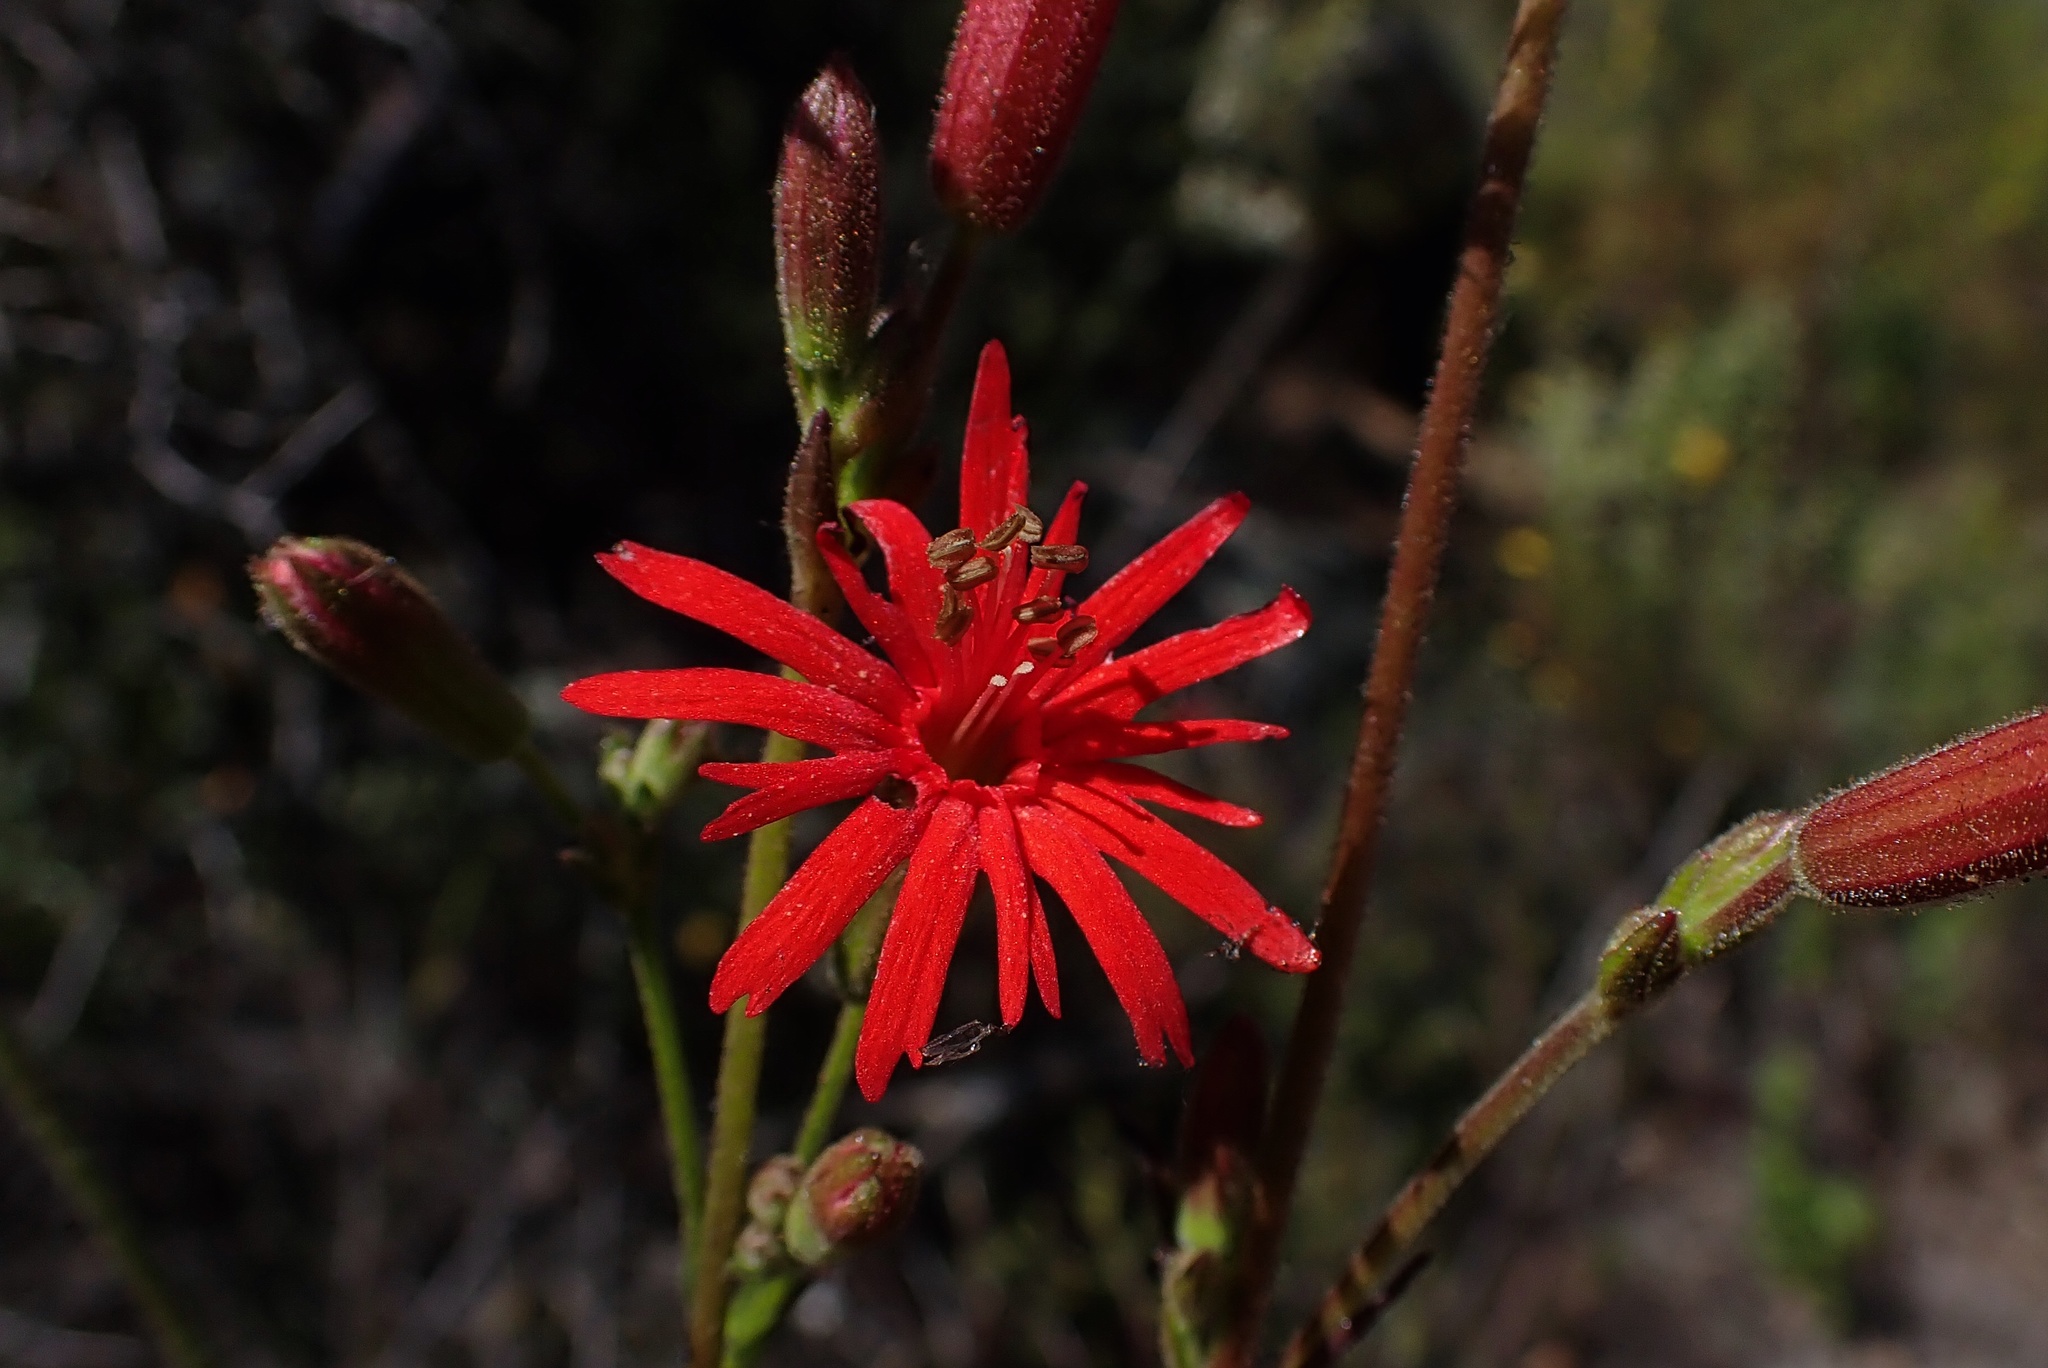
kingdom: Plantae
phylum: Tracheophyta
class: Magnoliopsida
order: Caryophyllales
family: Caryophyllaceae
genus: Silene
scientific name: Silene laciniata
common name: Indian-pink
